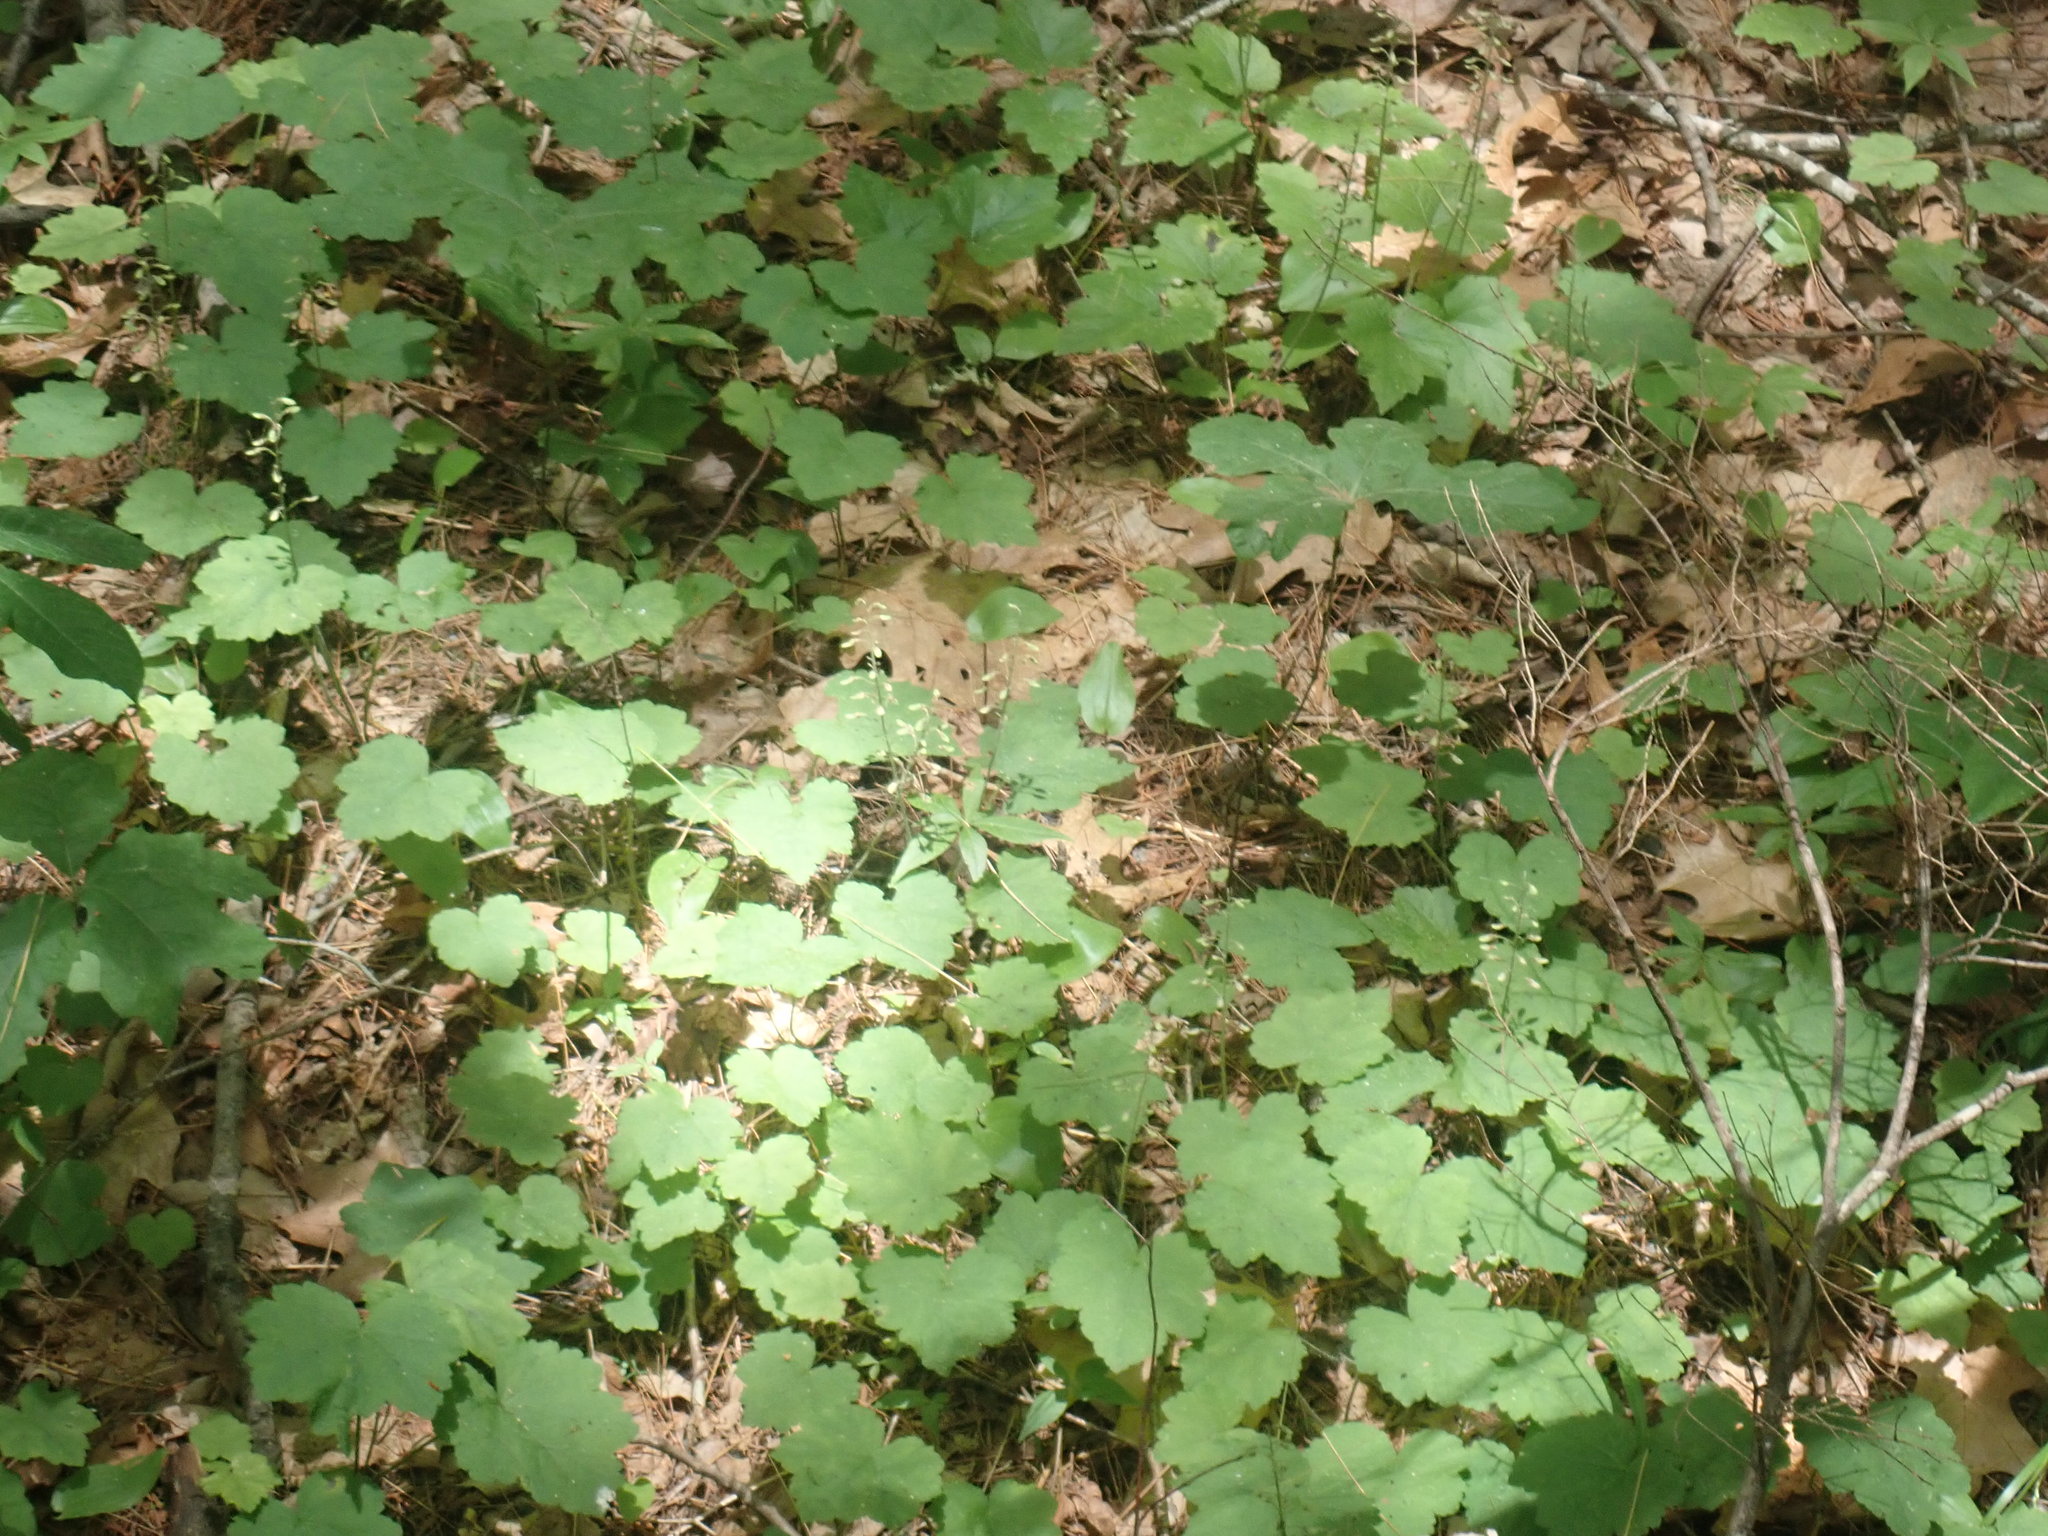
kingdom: Plantae
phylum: Tracheophyta
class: Magnoliopsida
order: Saxifragales
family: Saxifragaceae
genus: Tiarella
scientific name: Tiarella stolonifera
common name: Stoloniferous foamflower
